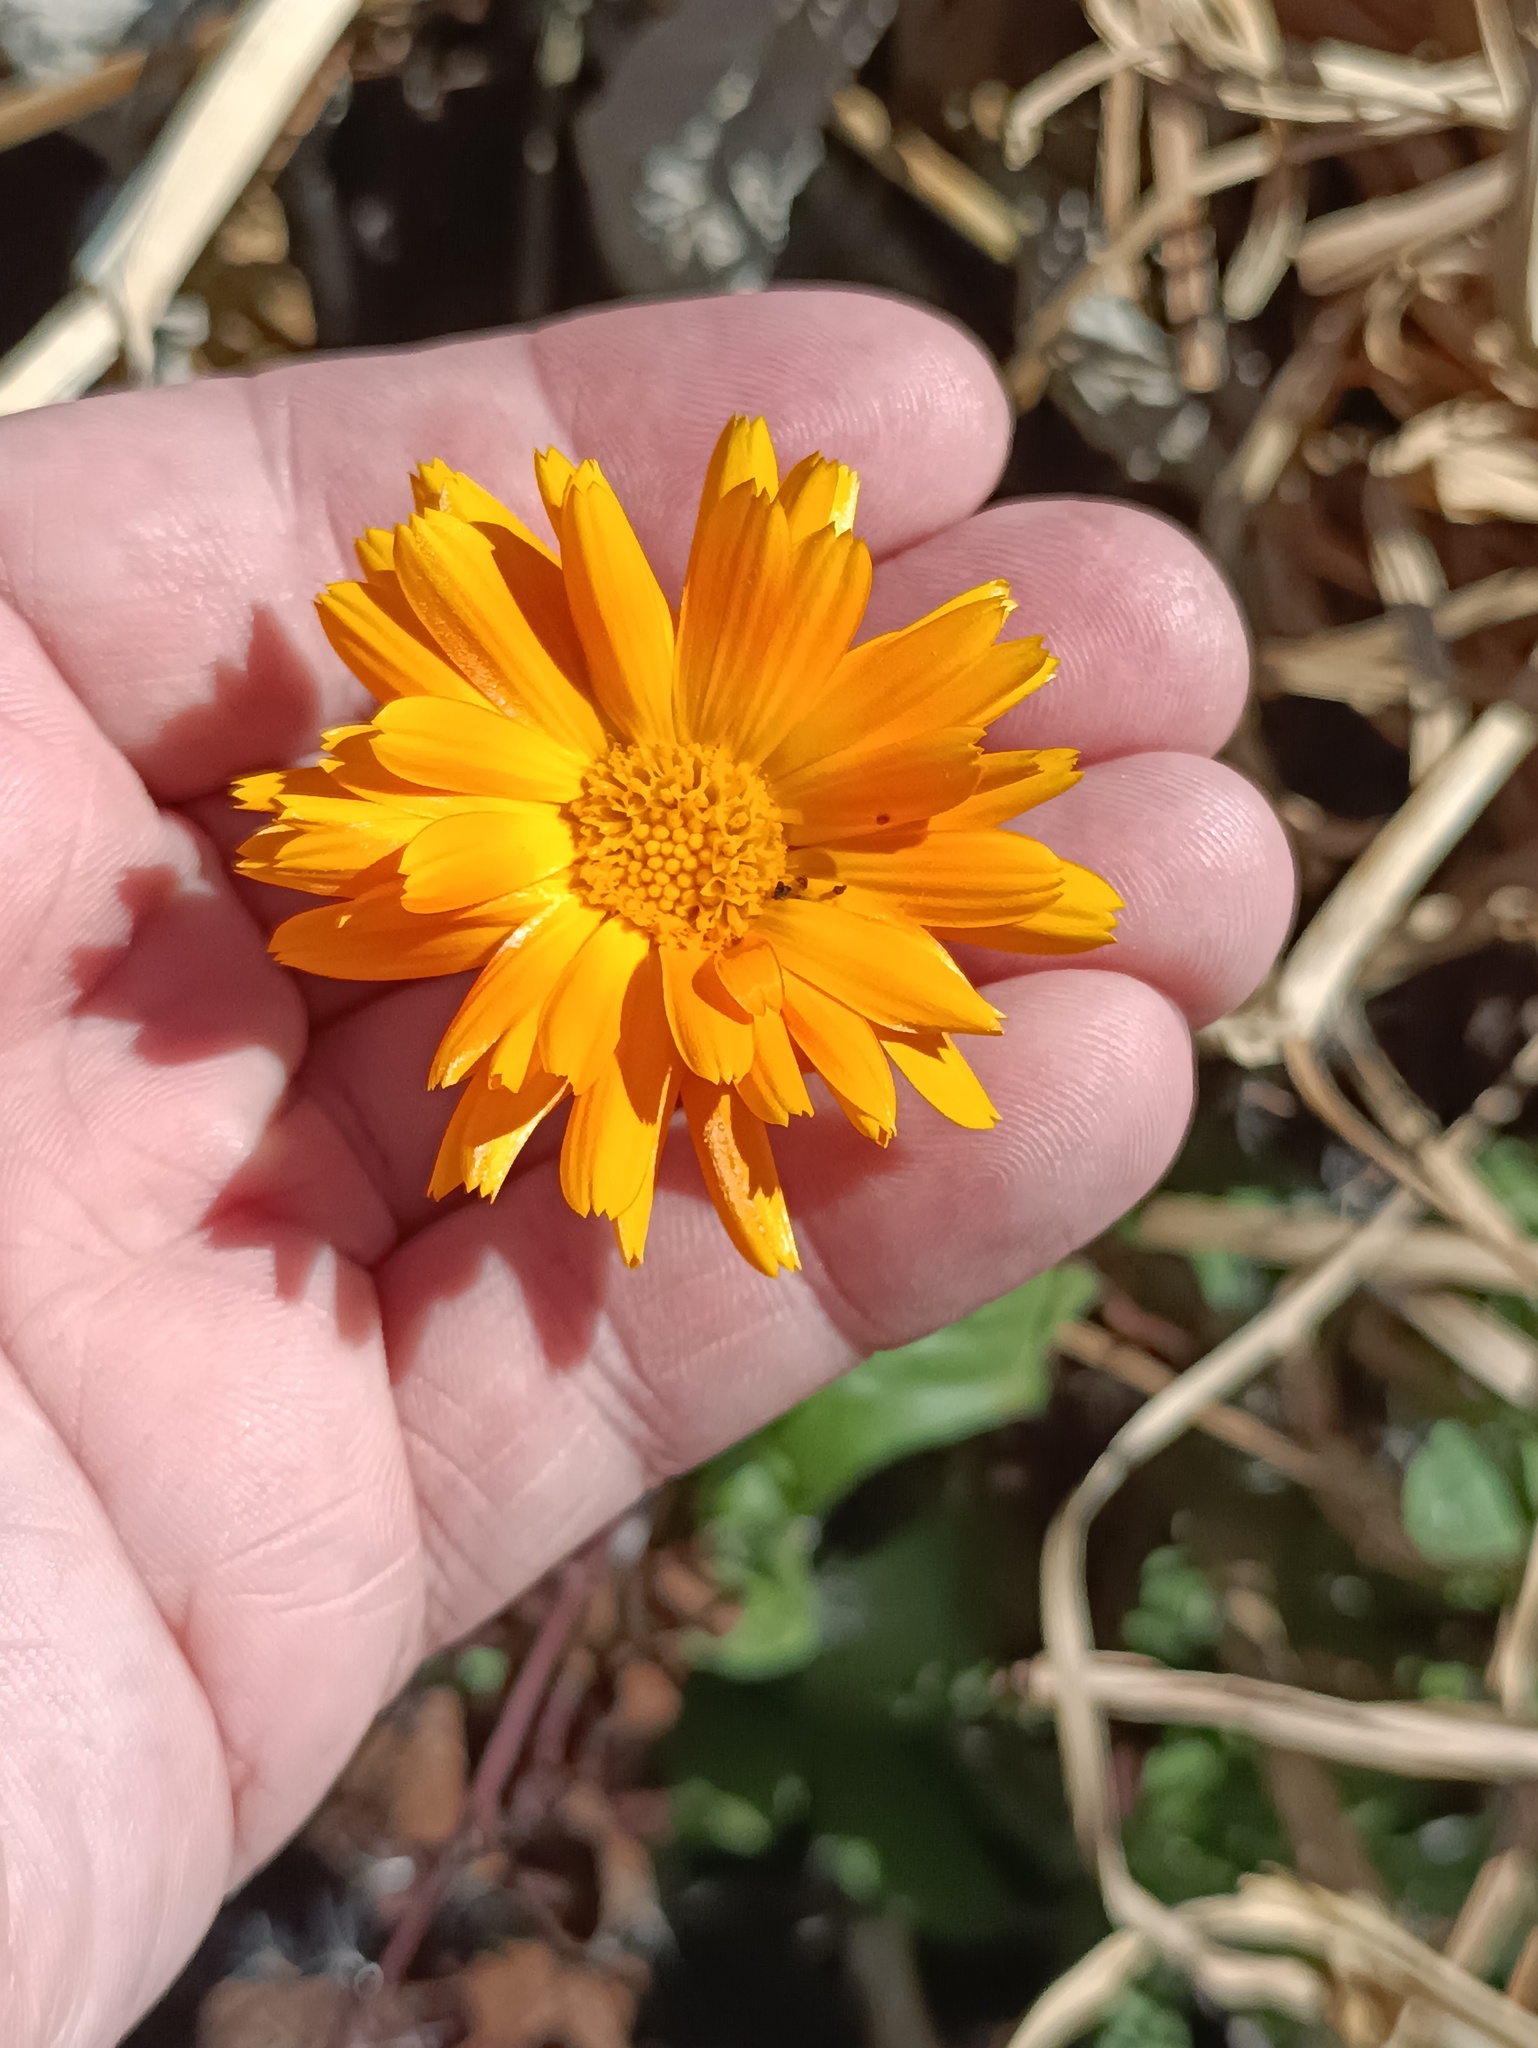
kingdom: Plantae
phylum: Tracheophyta
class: Magnoliopsida
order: Asterales
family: Asteraceae
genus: Calendula
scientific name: Calendula officinalis
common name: Pot marigold
